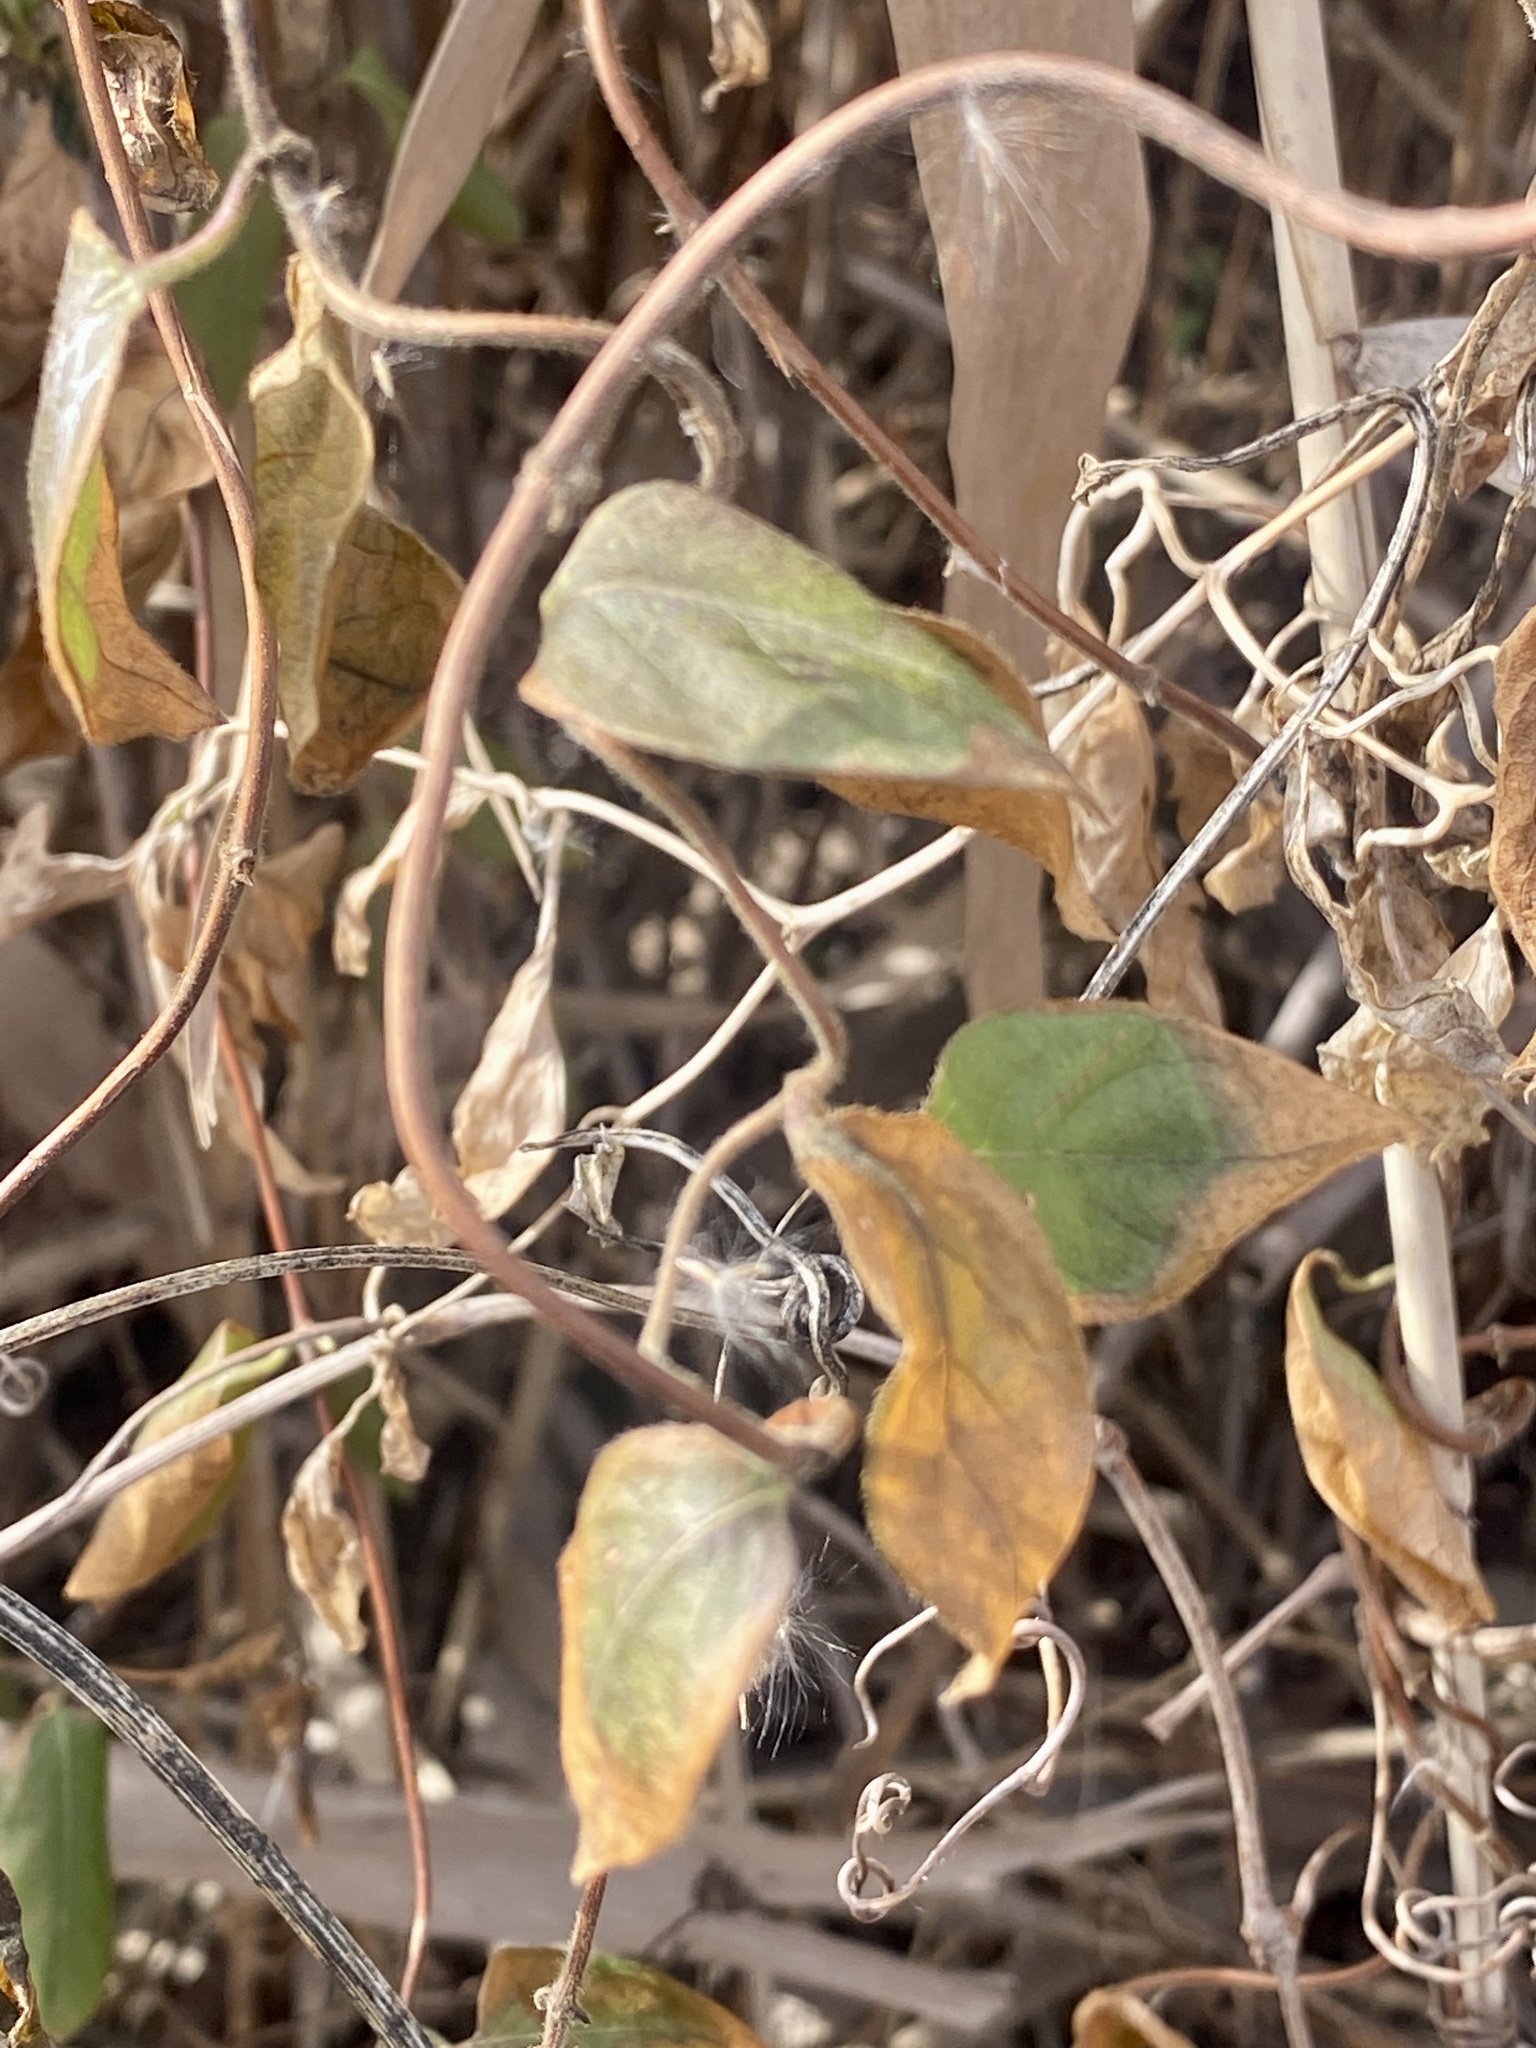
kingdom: Plantae
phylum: Tracheophyta
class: Magnoliopsida
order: Ranunculales
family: Ranunculaceae
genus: Clematis
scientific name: Clematis terniflora
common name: Sweet autumn clematis
